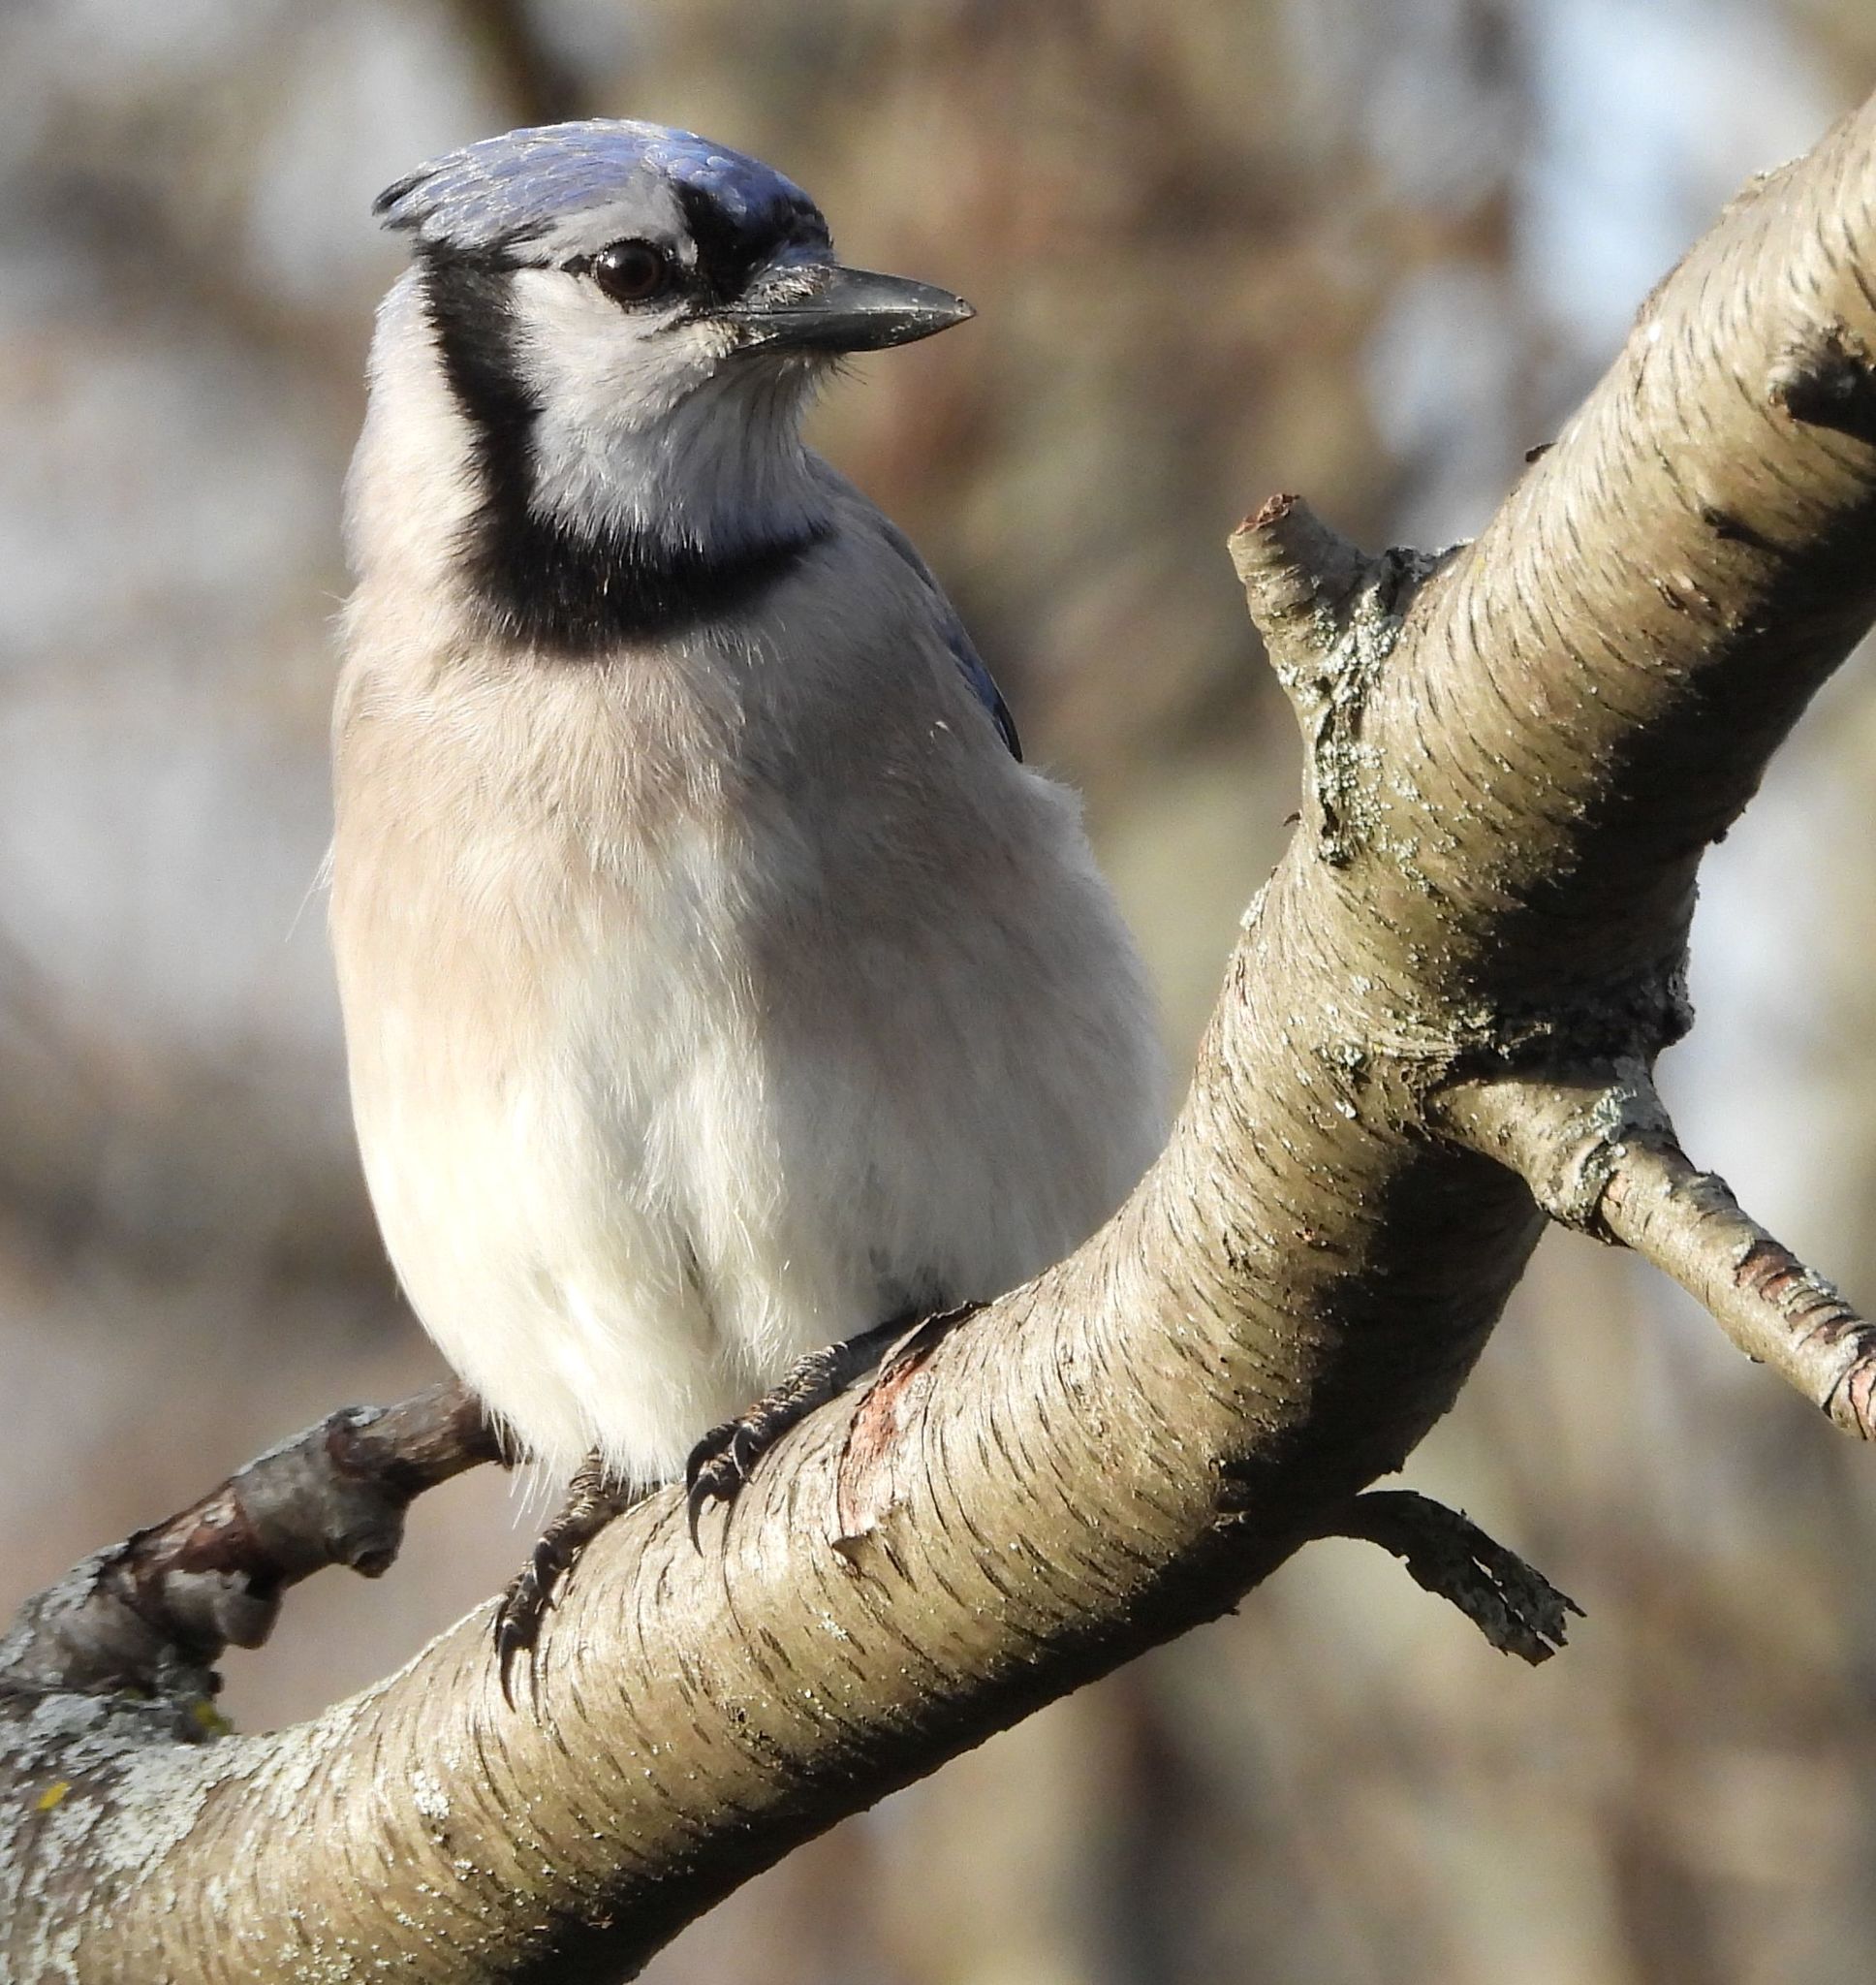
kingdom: Animalia
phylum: Chordata
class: Aves
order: Passeriformes
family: Corvidae
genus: Cyanocitta
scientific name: Cyanocitta cristata
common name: Blue jay
